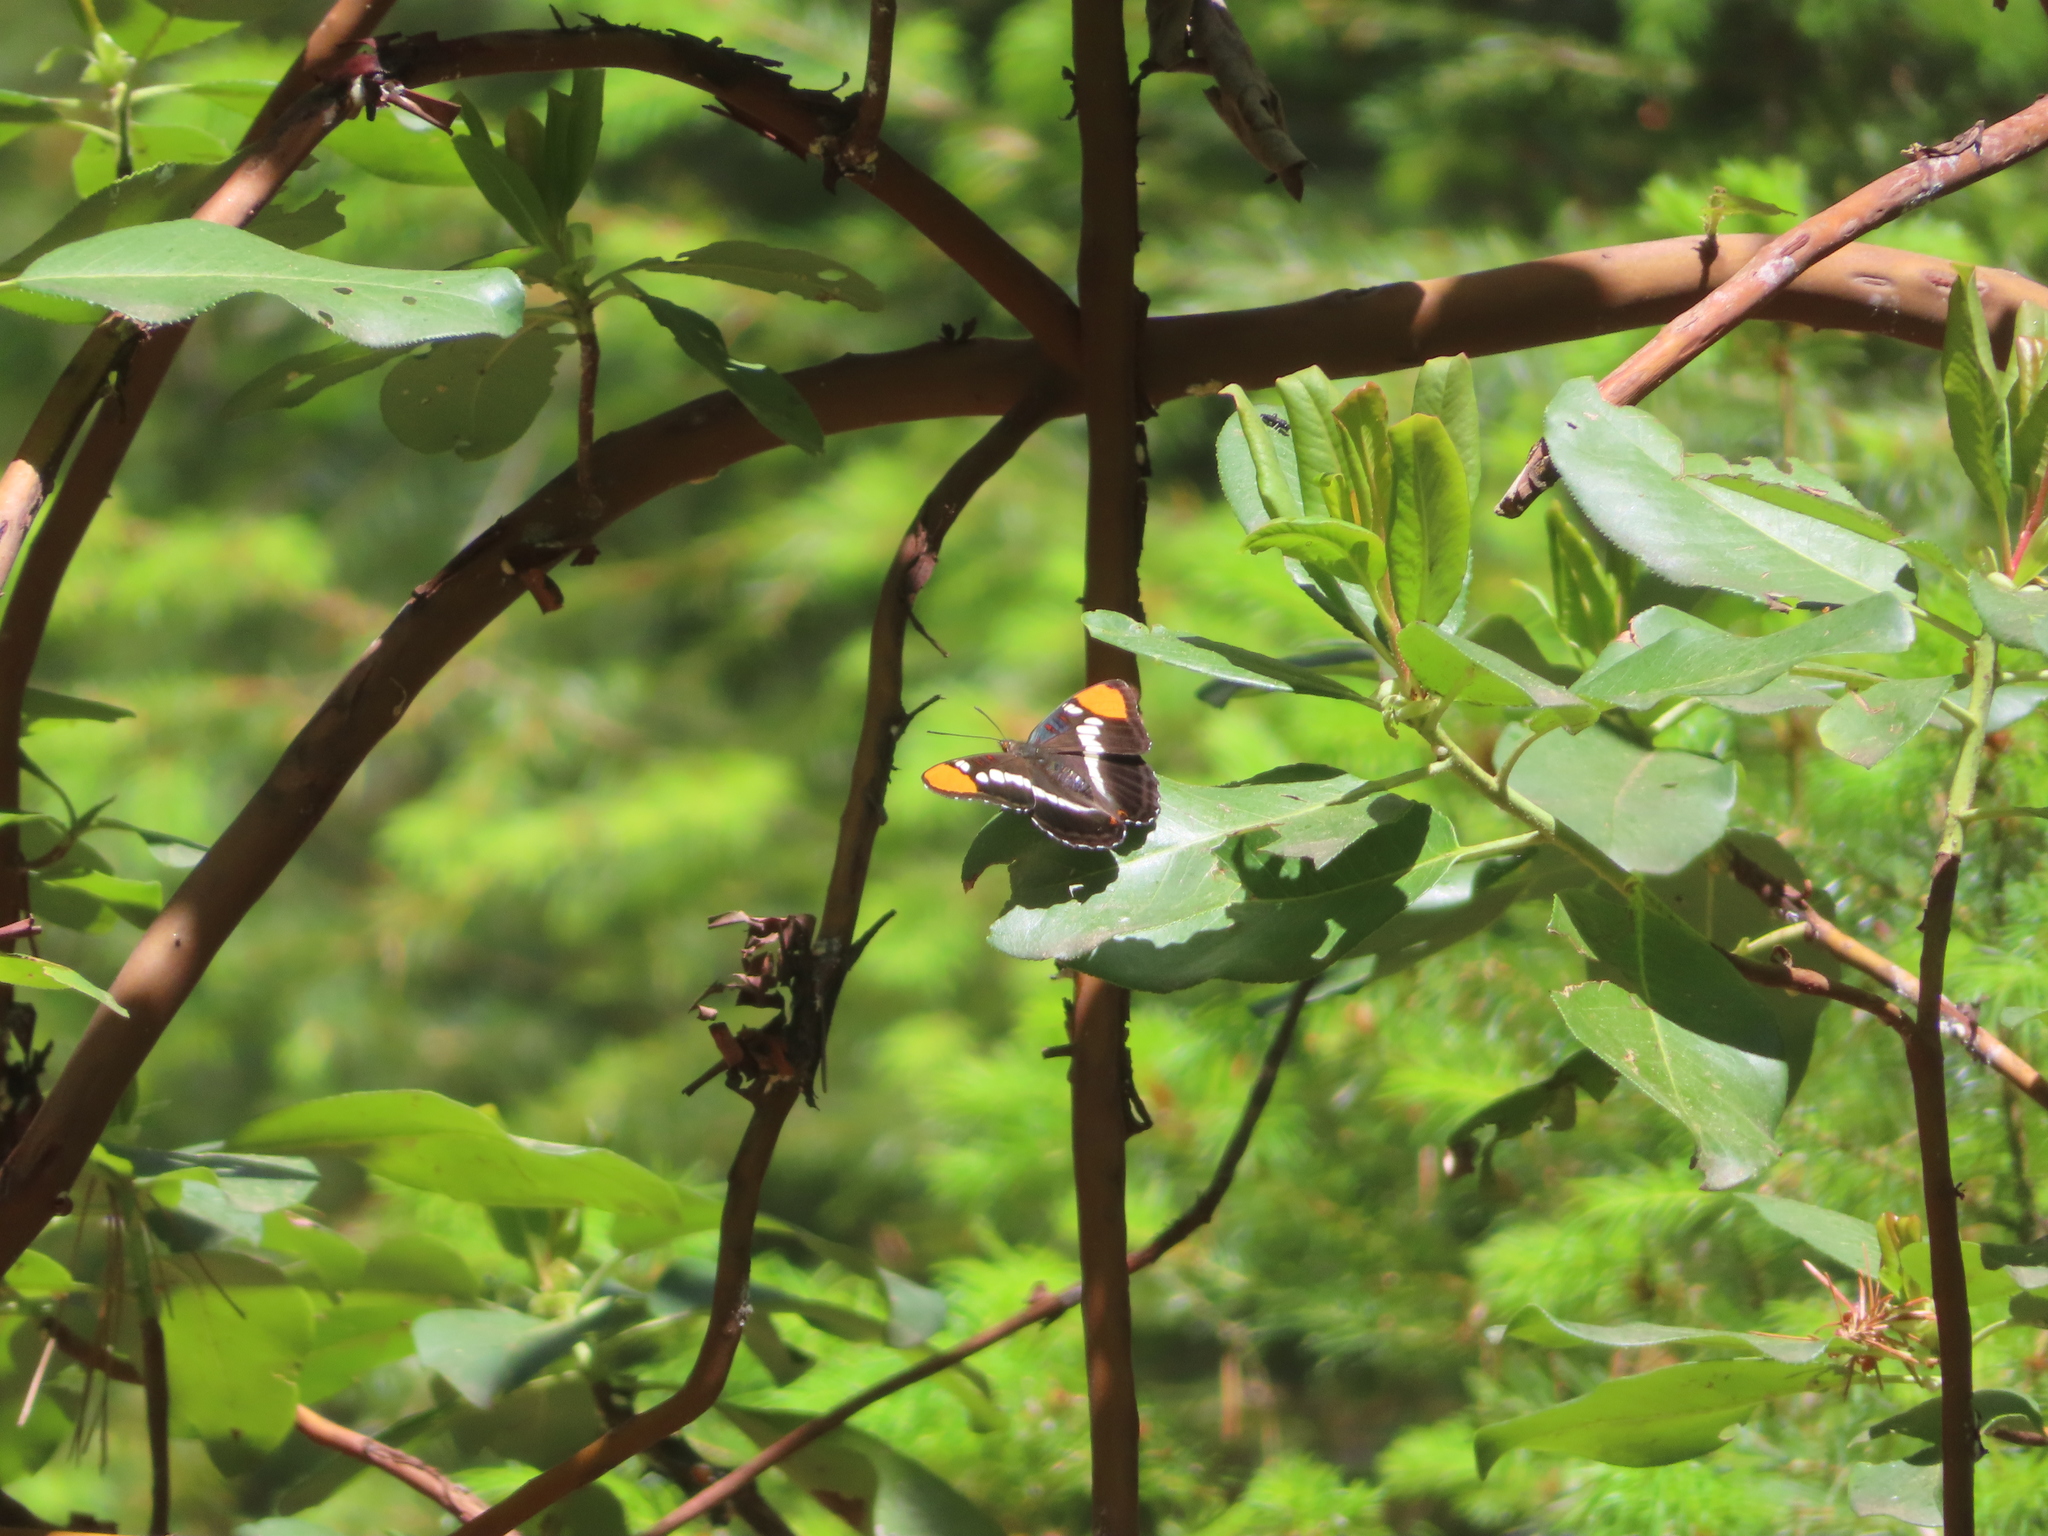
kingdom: Animalia
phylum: Arthropoda
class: Insecta
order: Lepidoptera
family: Nymphalidae
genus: Limenitis
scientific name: Limenitis bredowii
